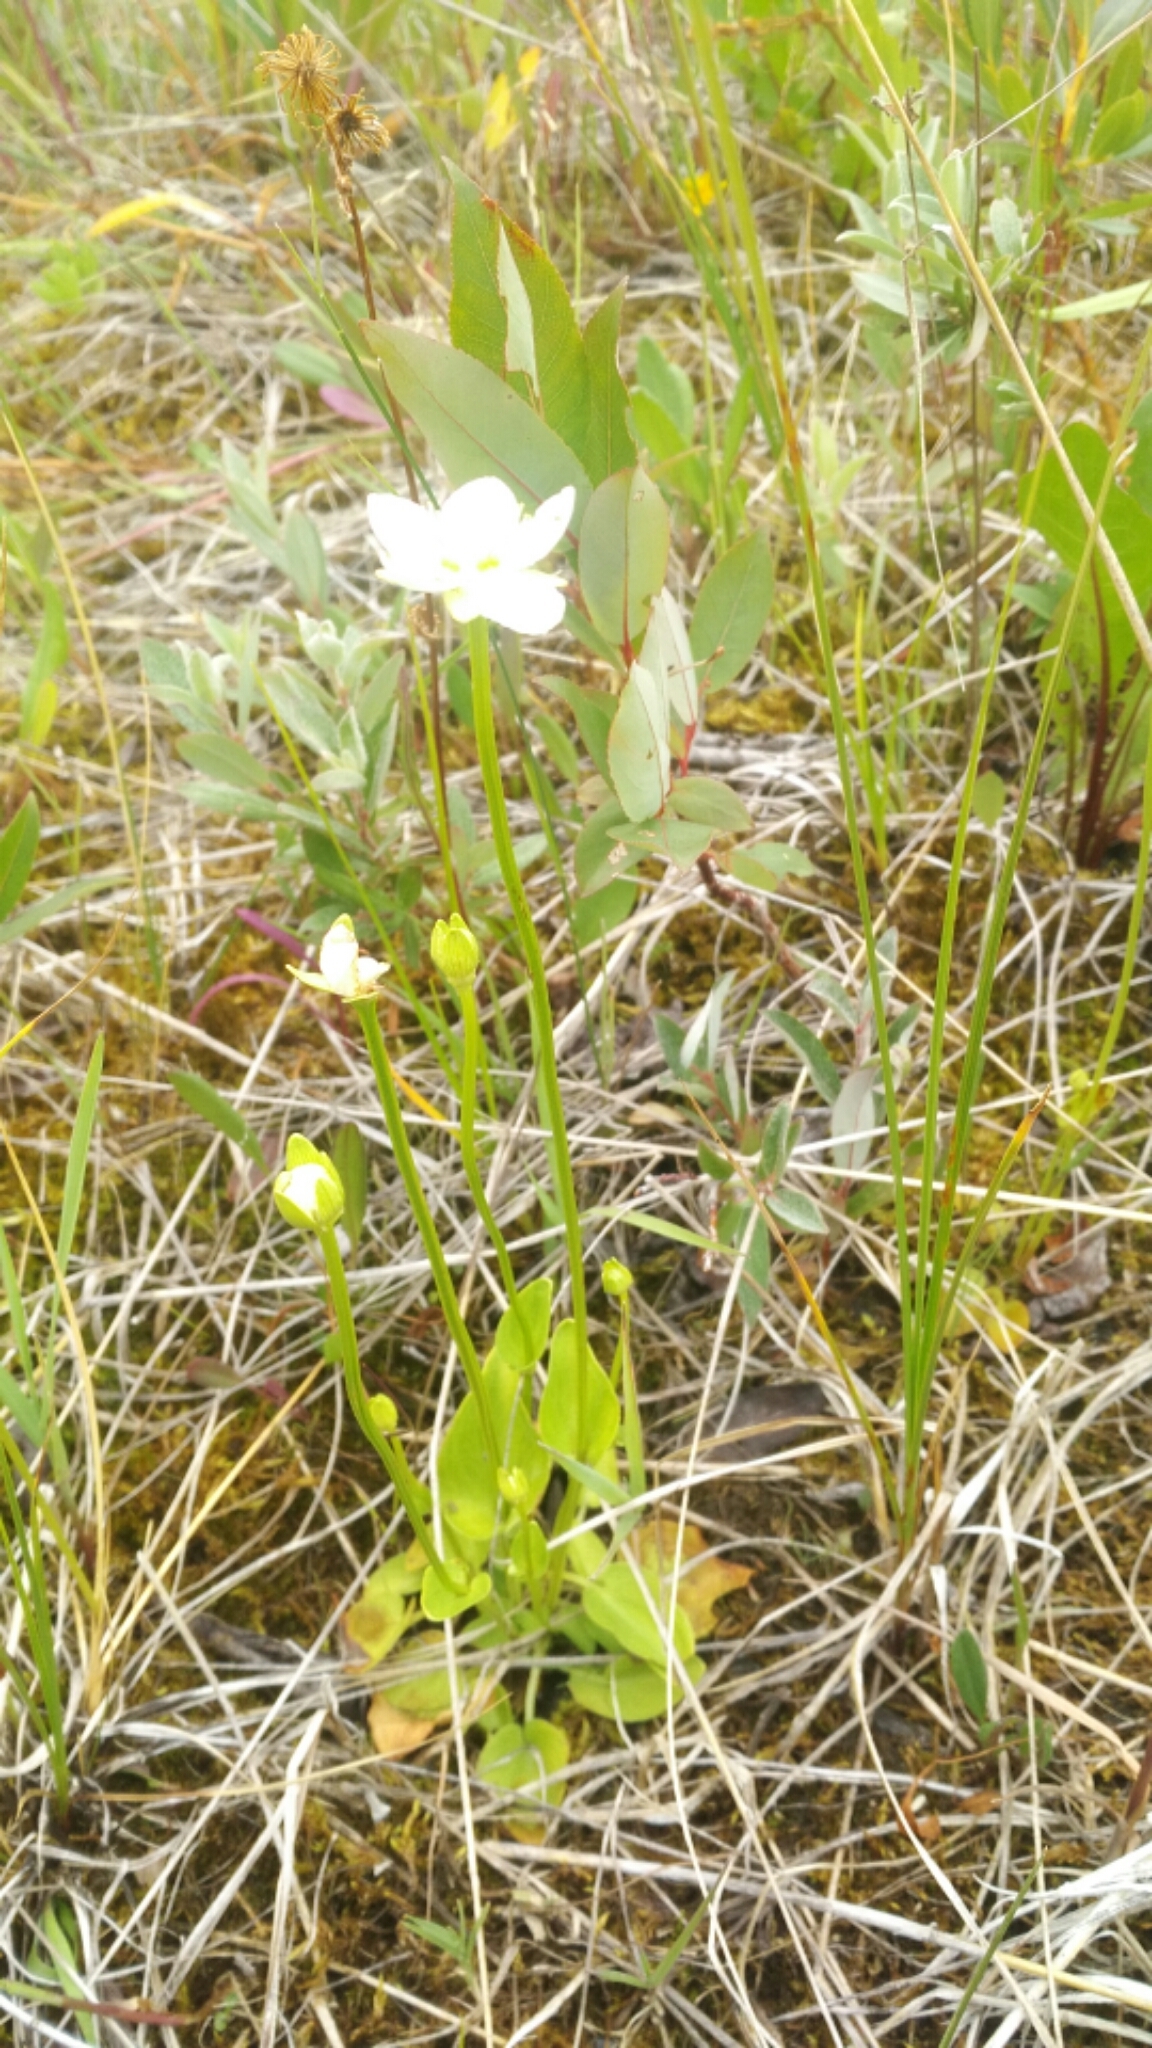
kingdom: Plantae
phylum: Tracheophyta
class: Magnoliopsida
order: Celastrales
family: Parnassiaceae
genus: Parnassia
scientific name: Parnassia palustris
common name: Grass-of-parnassus
